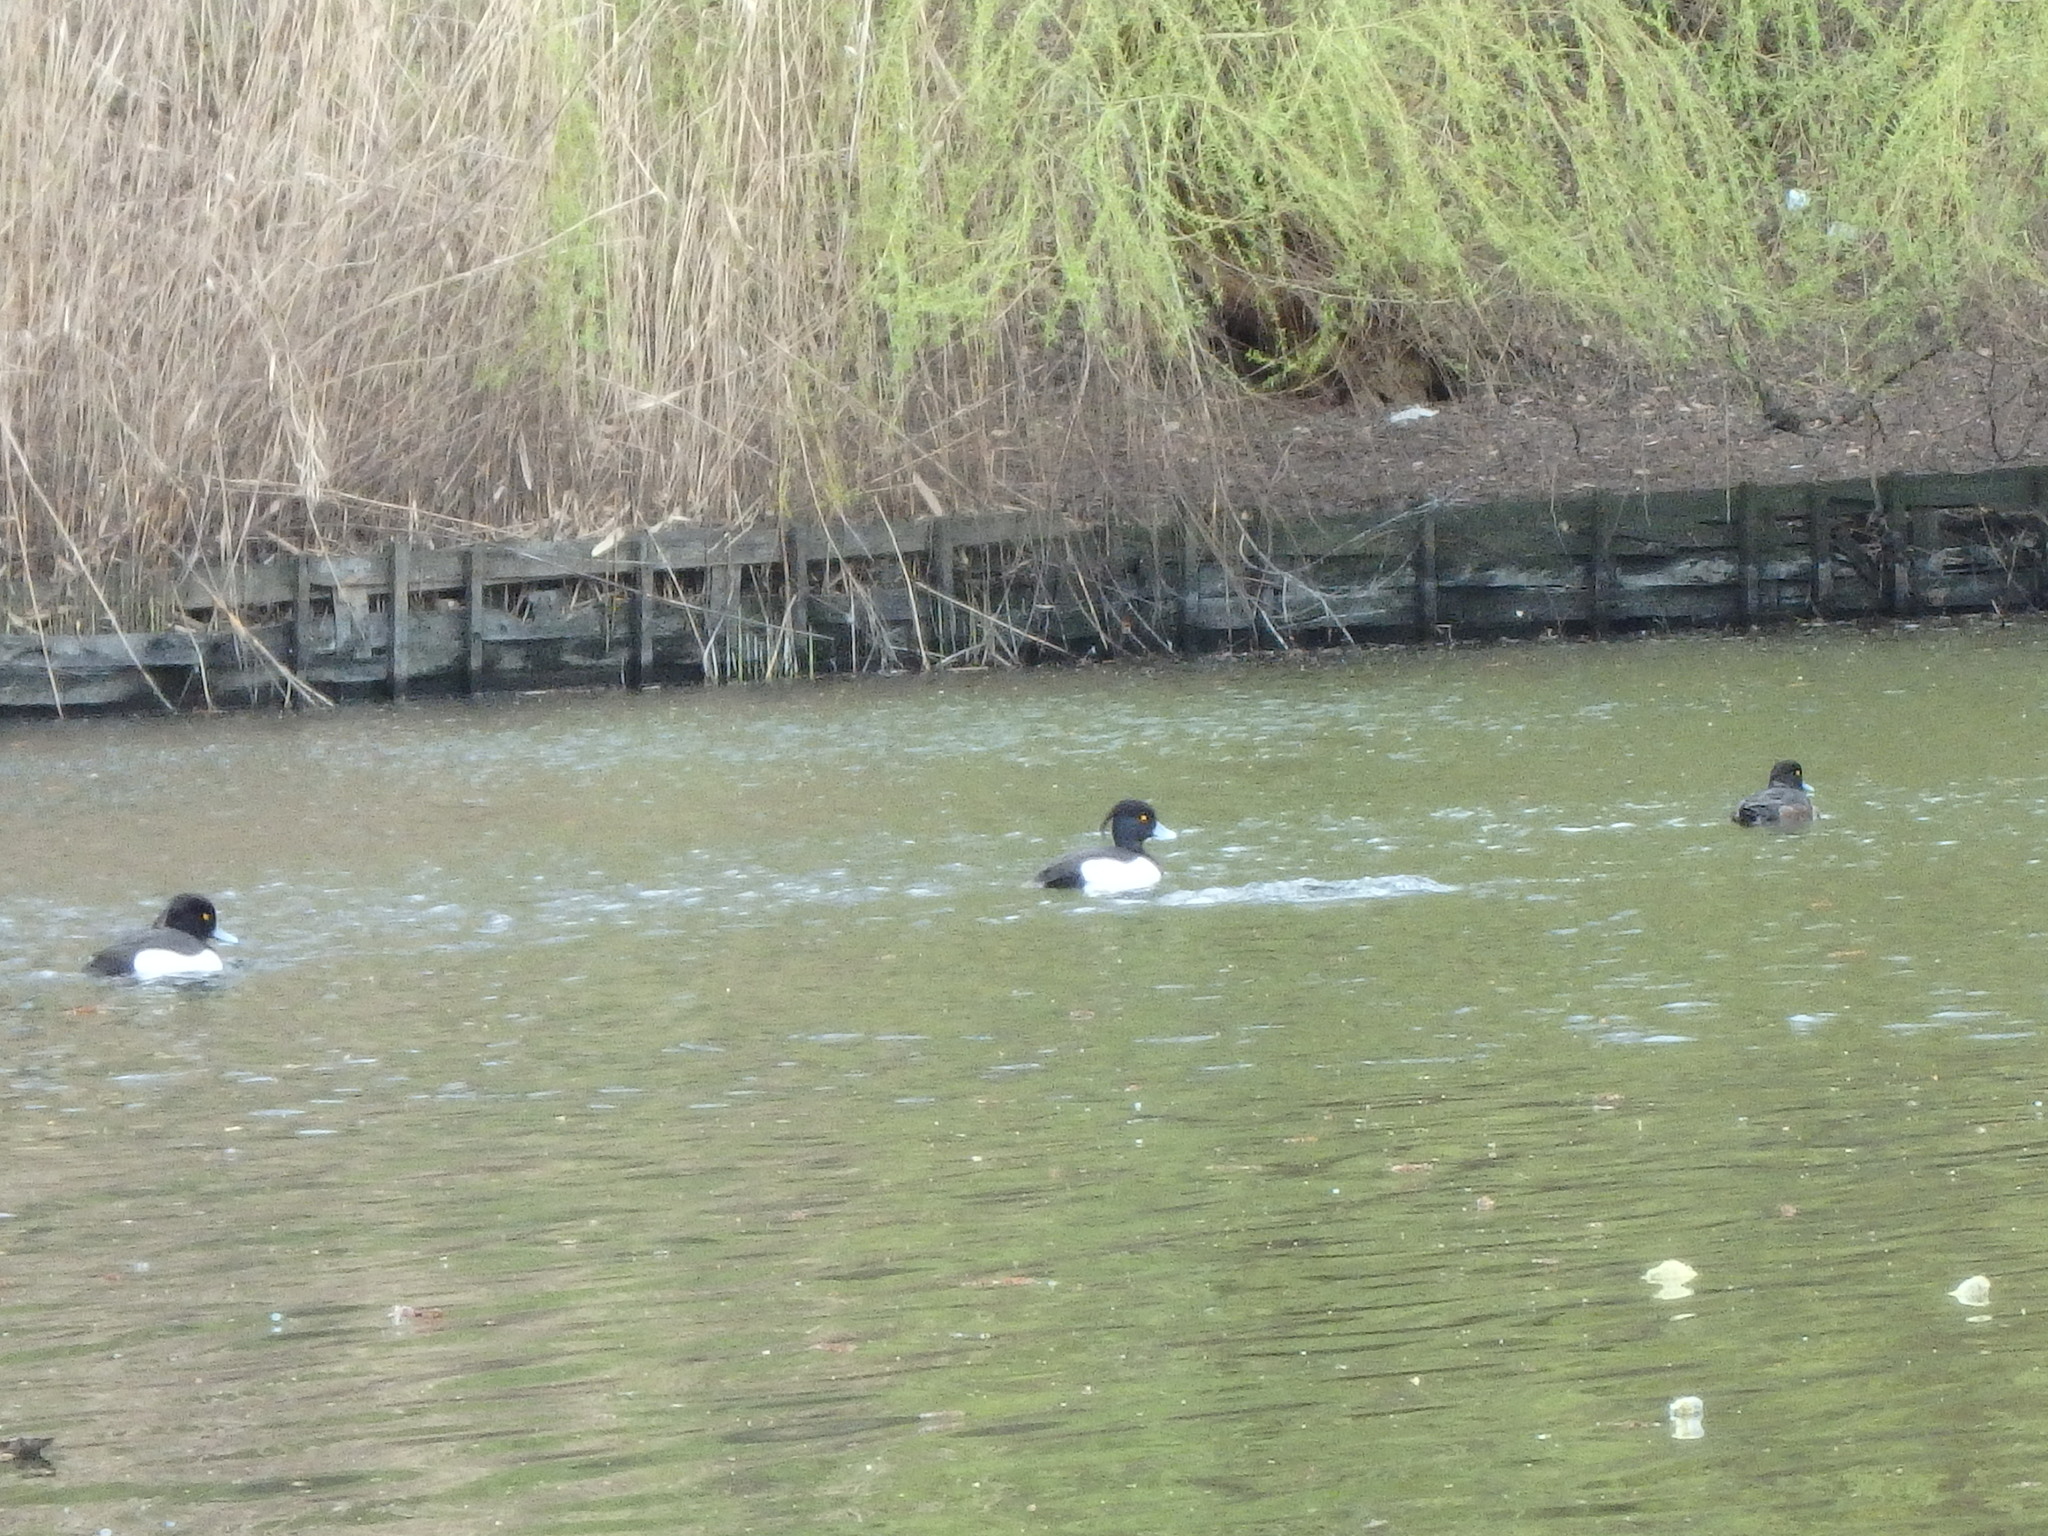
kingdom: Animalia
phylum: Chordata
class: Aves
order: Anseriformes
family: Anatidae
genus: Aythya
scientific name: Aythya fuligula
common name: Tufted duck
